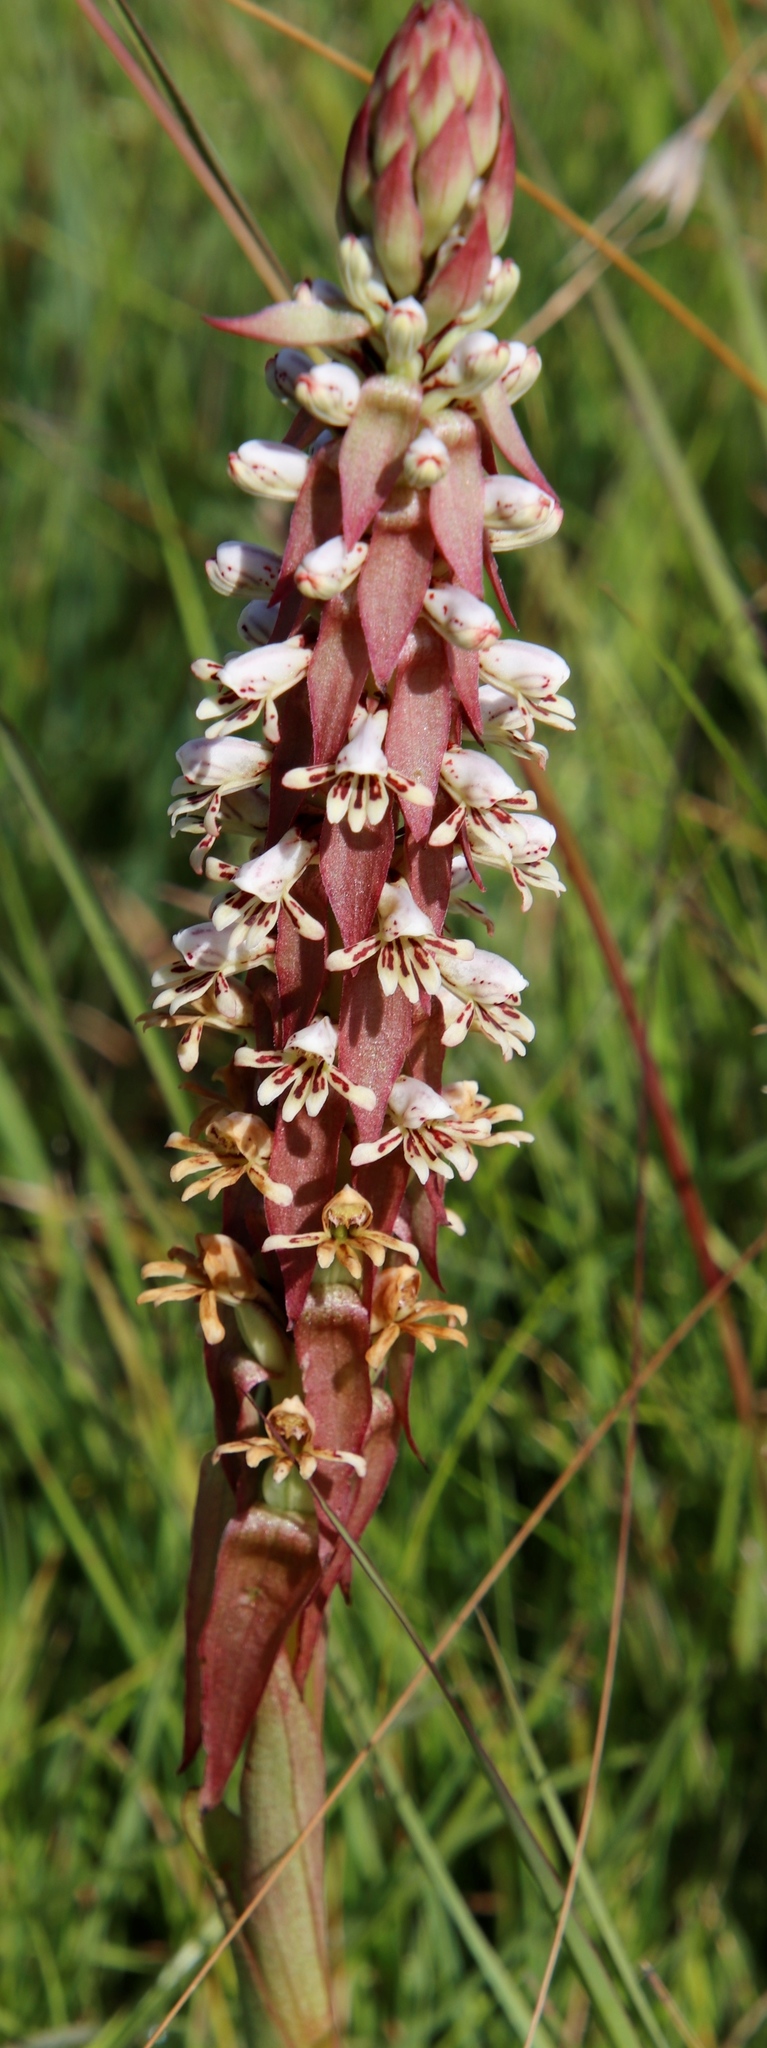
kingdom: Plantae
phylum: Tracheophyta
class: Liliopsida
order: Asparagales
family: Orchidaceae
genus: Satyrium
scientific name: Satyrium cristatum
